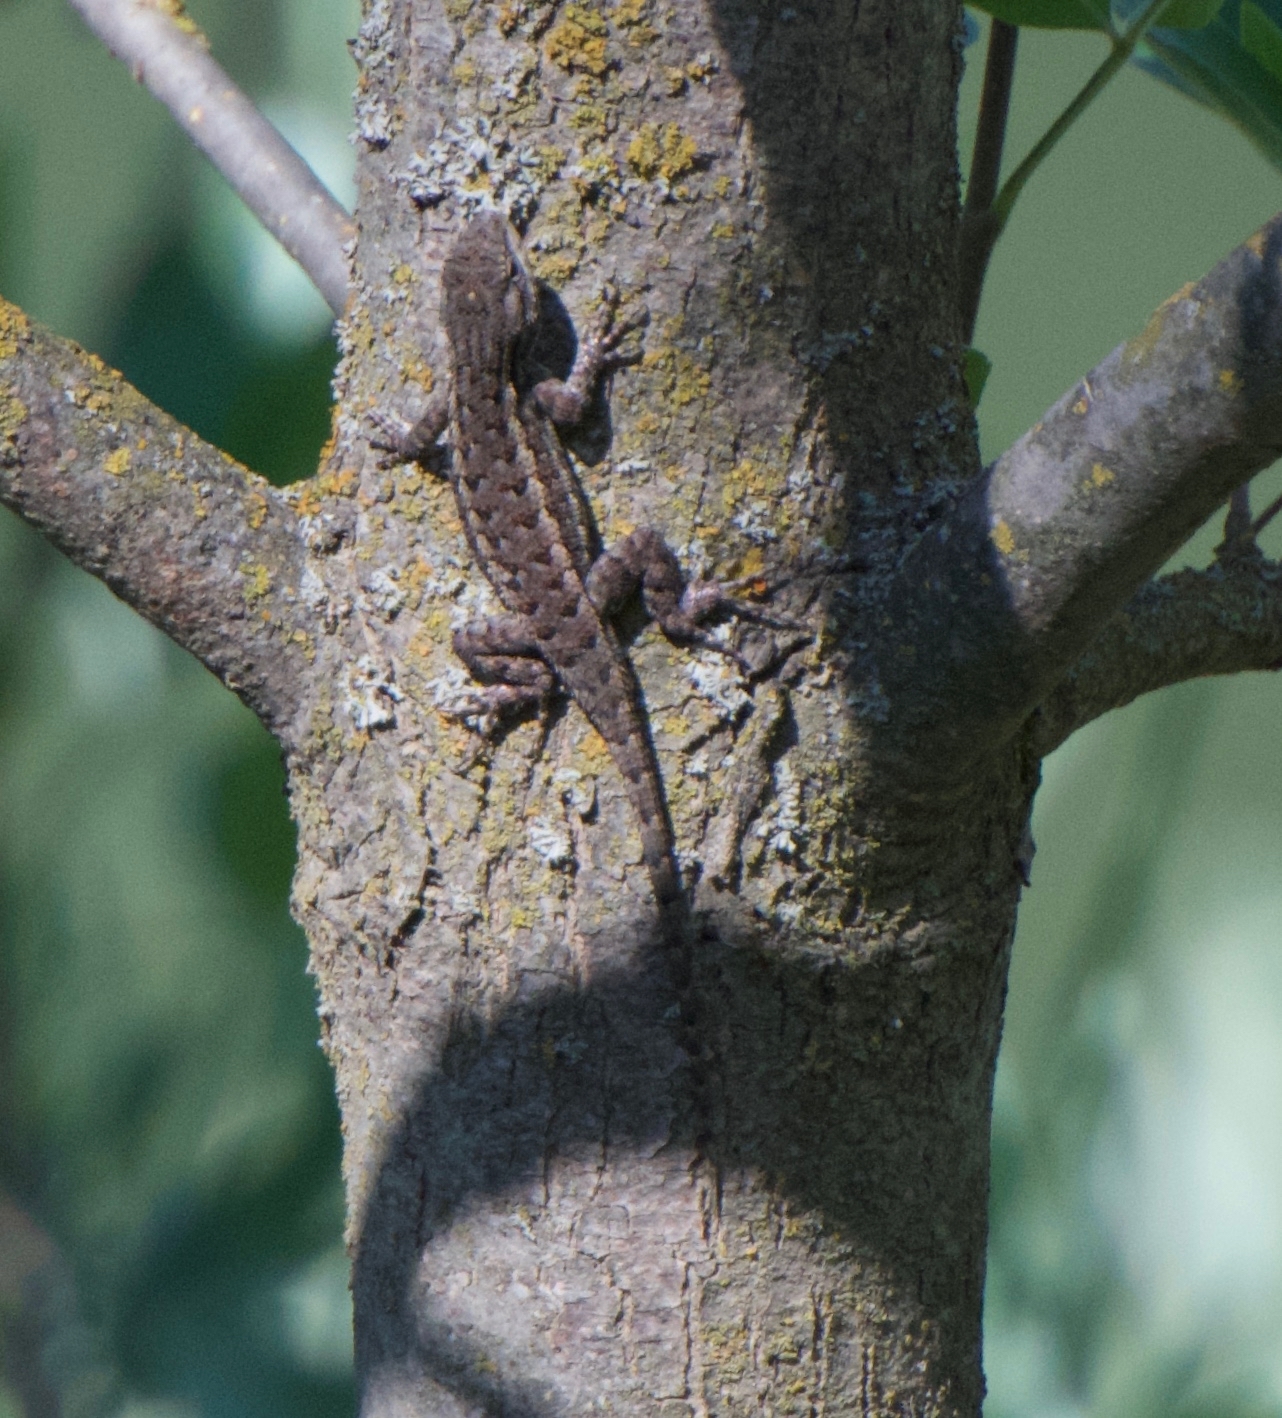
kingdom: Animalia
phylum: Chordata
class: Squamata
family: Phrynosomatidae
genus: Sceloporus
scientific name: Sceloporus occidentalis
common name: Western fence lizard
